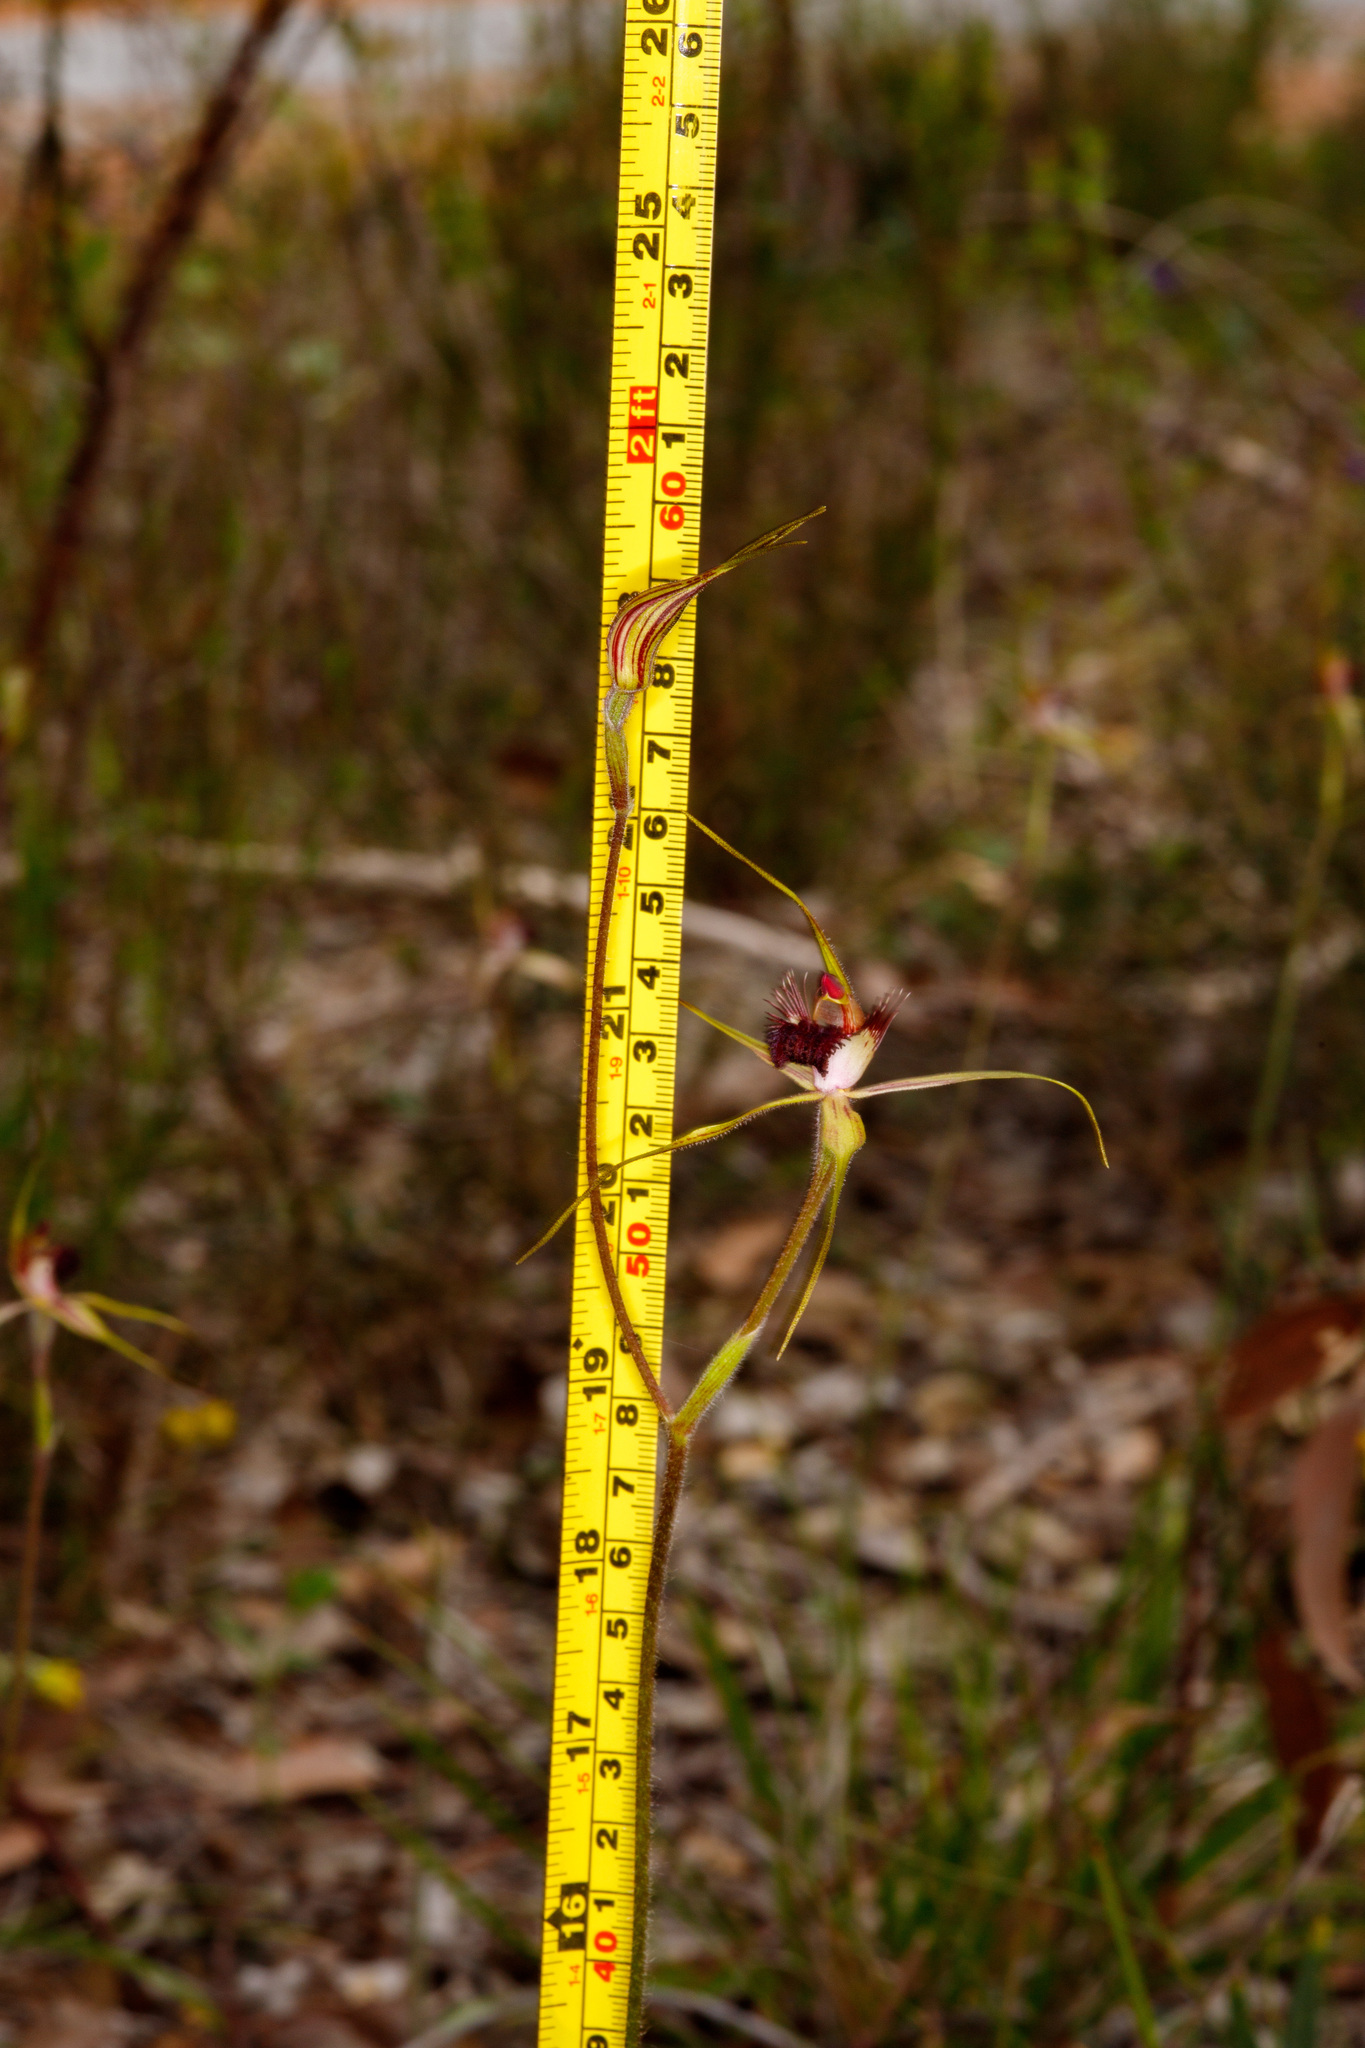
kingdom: Plantae
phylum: Tracheophyta
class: Liliopsida
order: Asparagales
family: Orchidaceae
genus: Caladenia
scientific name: Caladenia georgei
